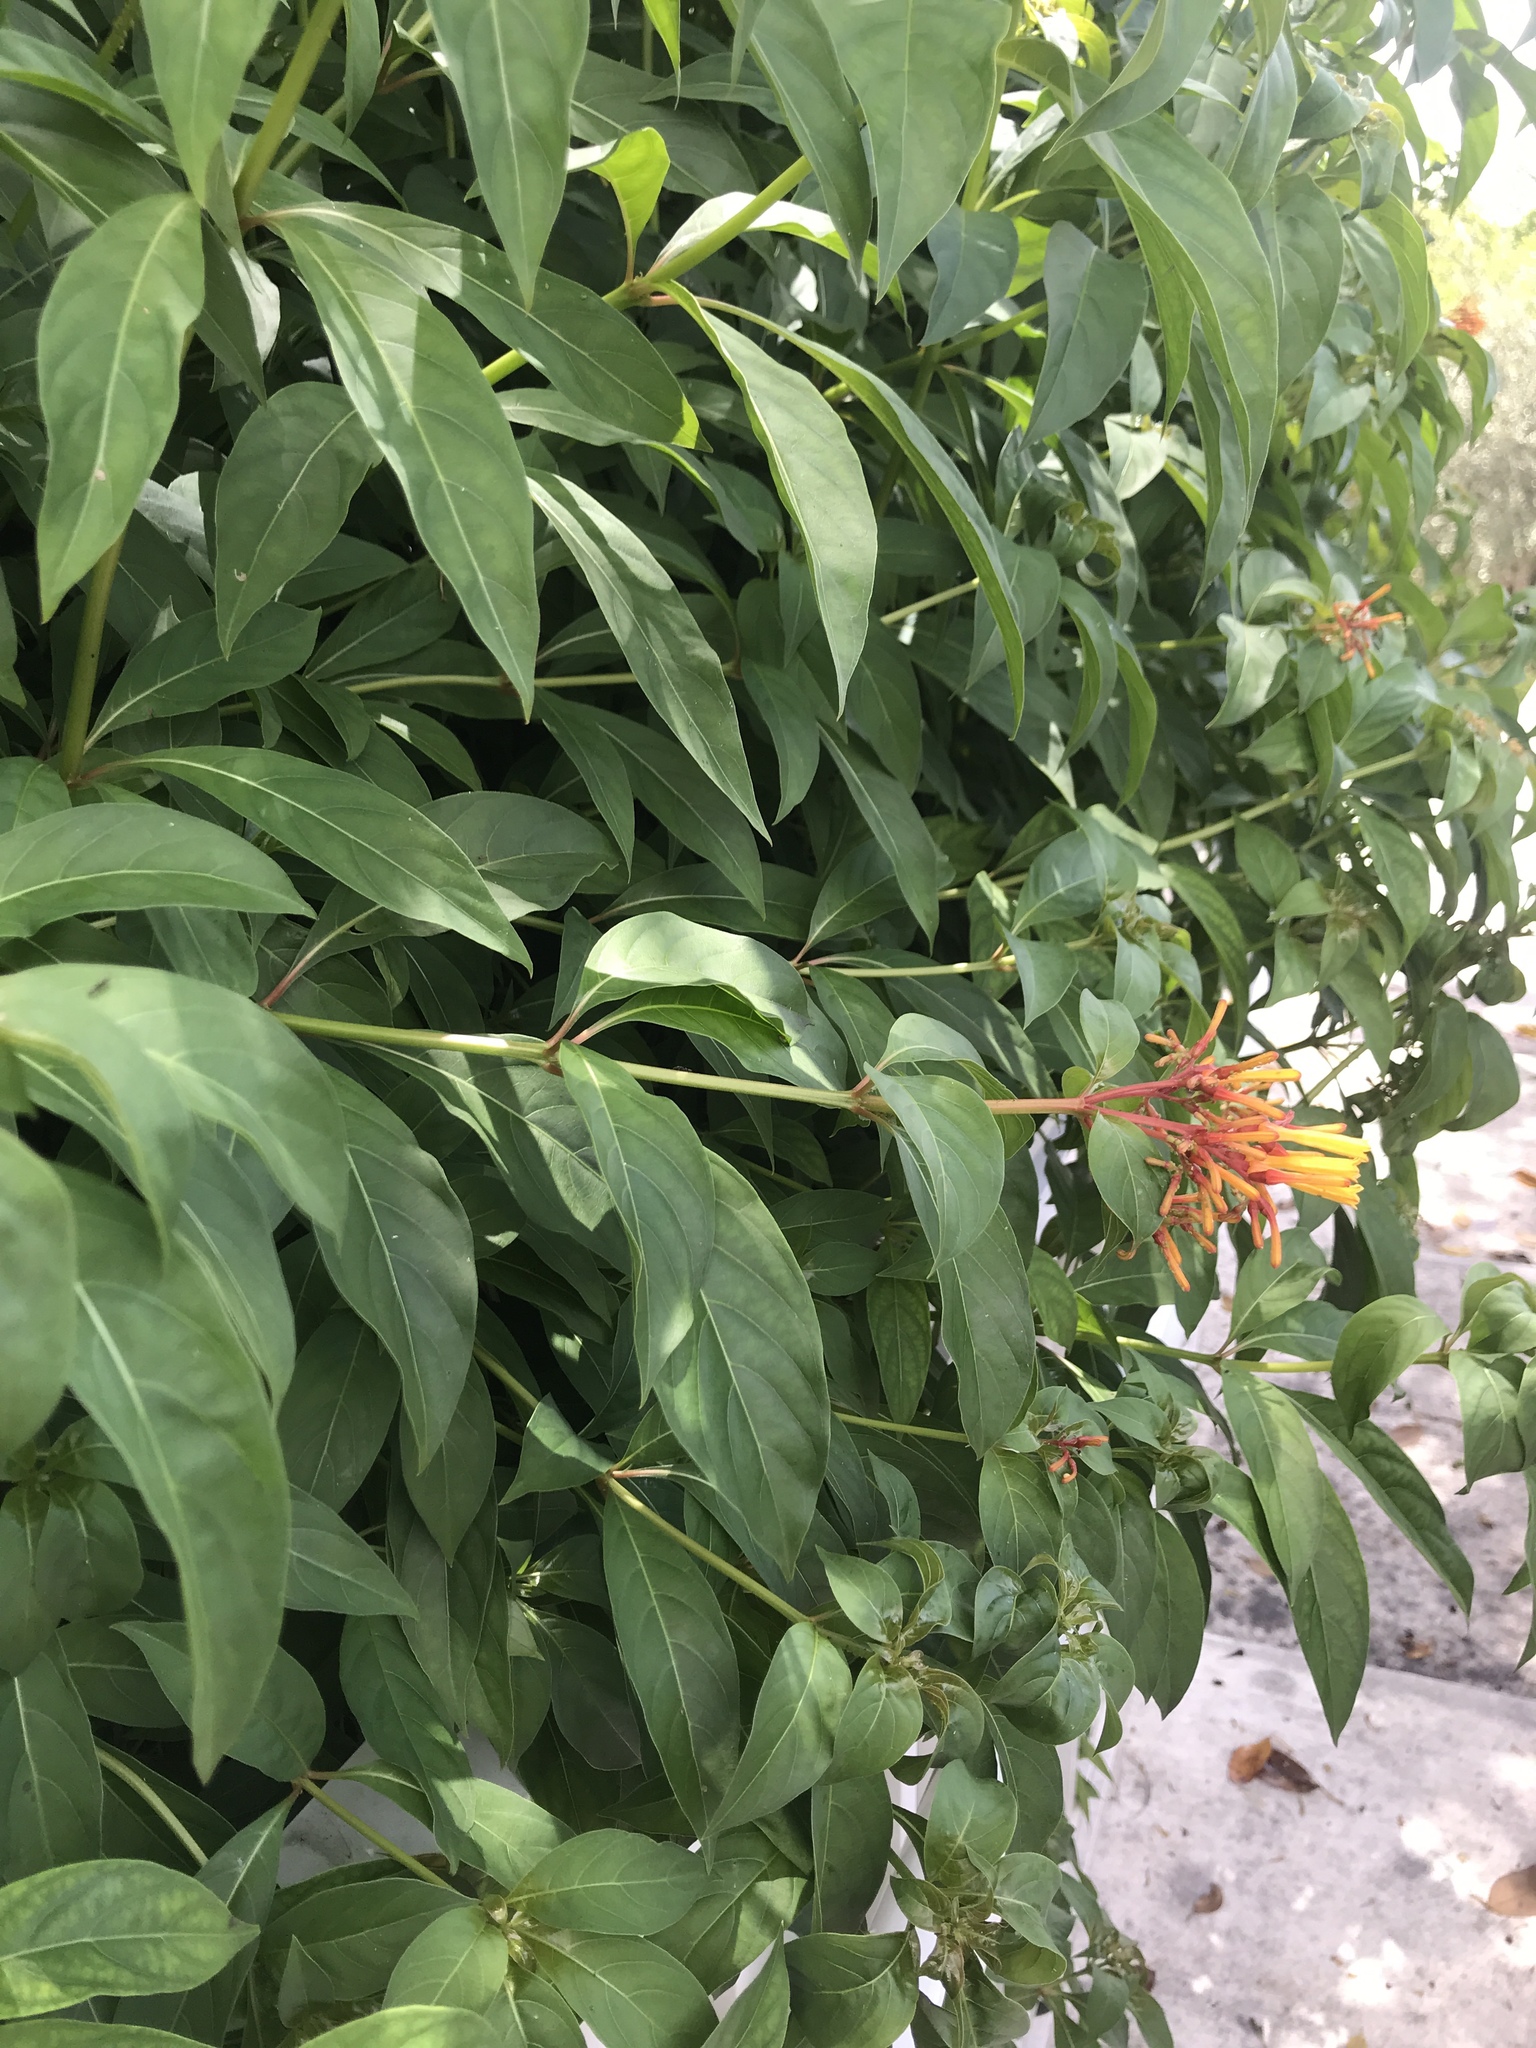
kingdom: Plantae
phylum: Tracheophyta
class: Magnoliopsida
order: Gentianales
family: Rubiaceae
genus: Hamelia
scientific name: Hamelia patens
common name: Redhead
